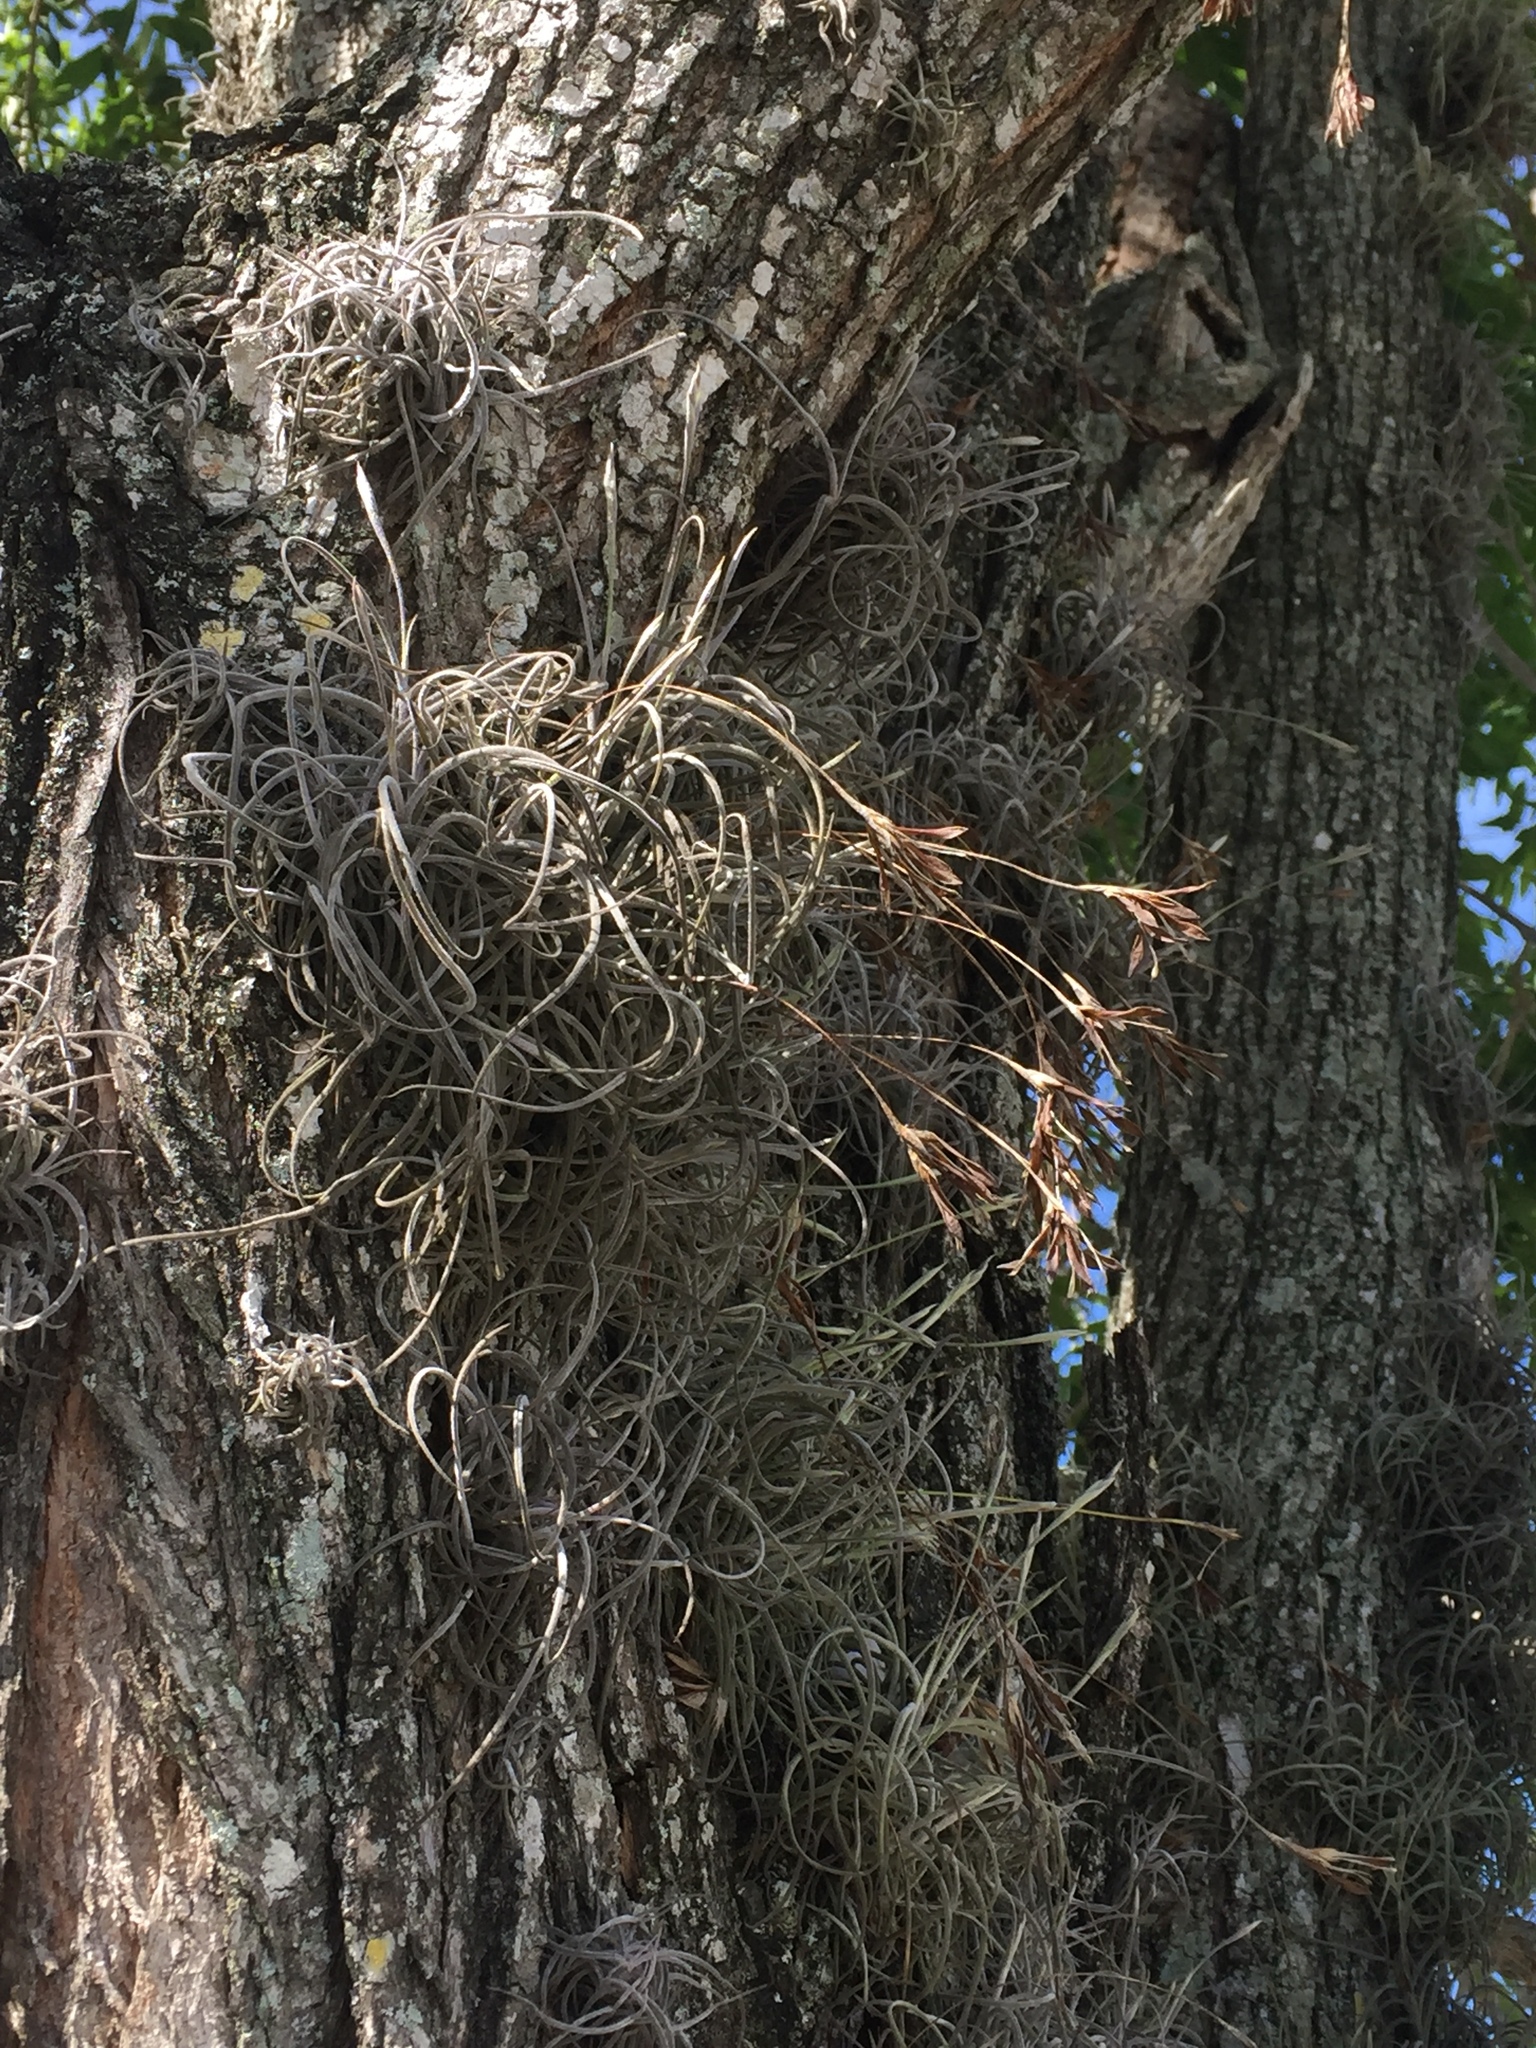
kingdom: Plantae
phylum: Tracheophyta
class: Liliopsida
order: Poales
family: Bromeliaceae
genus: Tillandsia
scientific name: Tillandsia recurvata
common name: Small ballmoss
